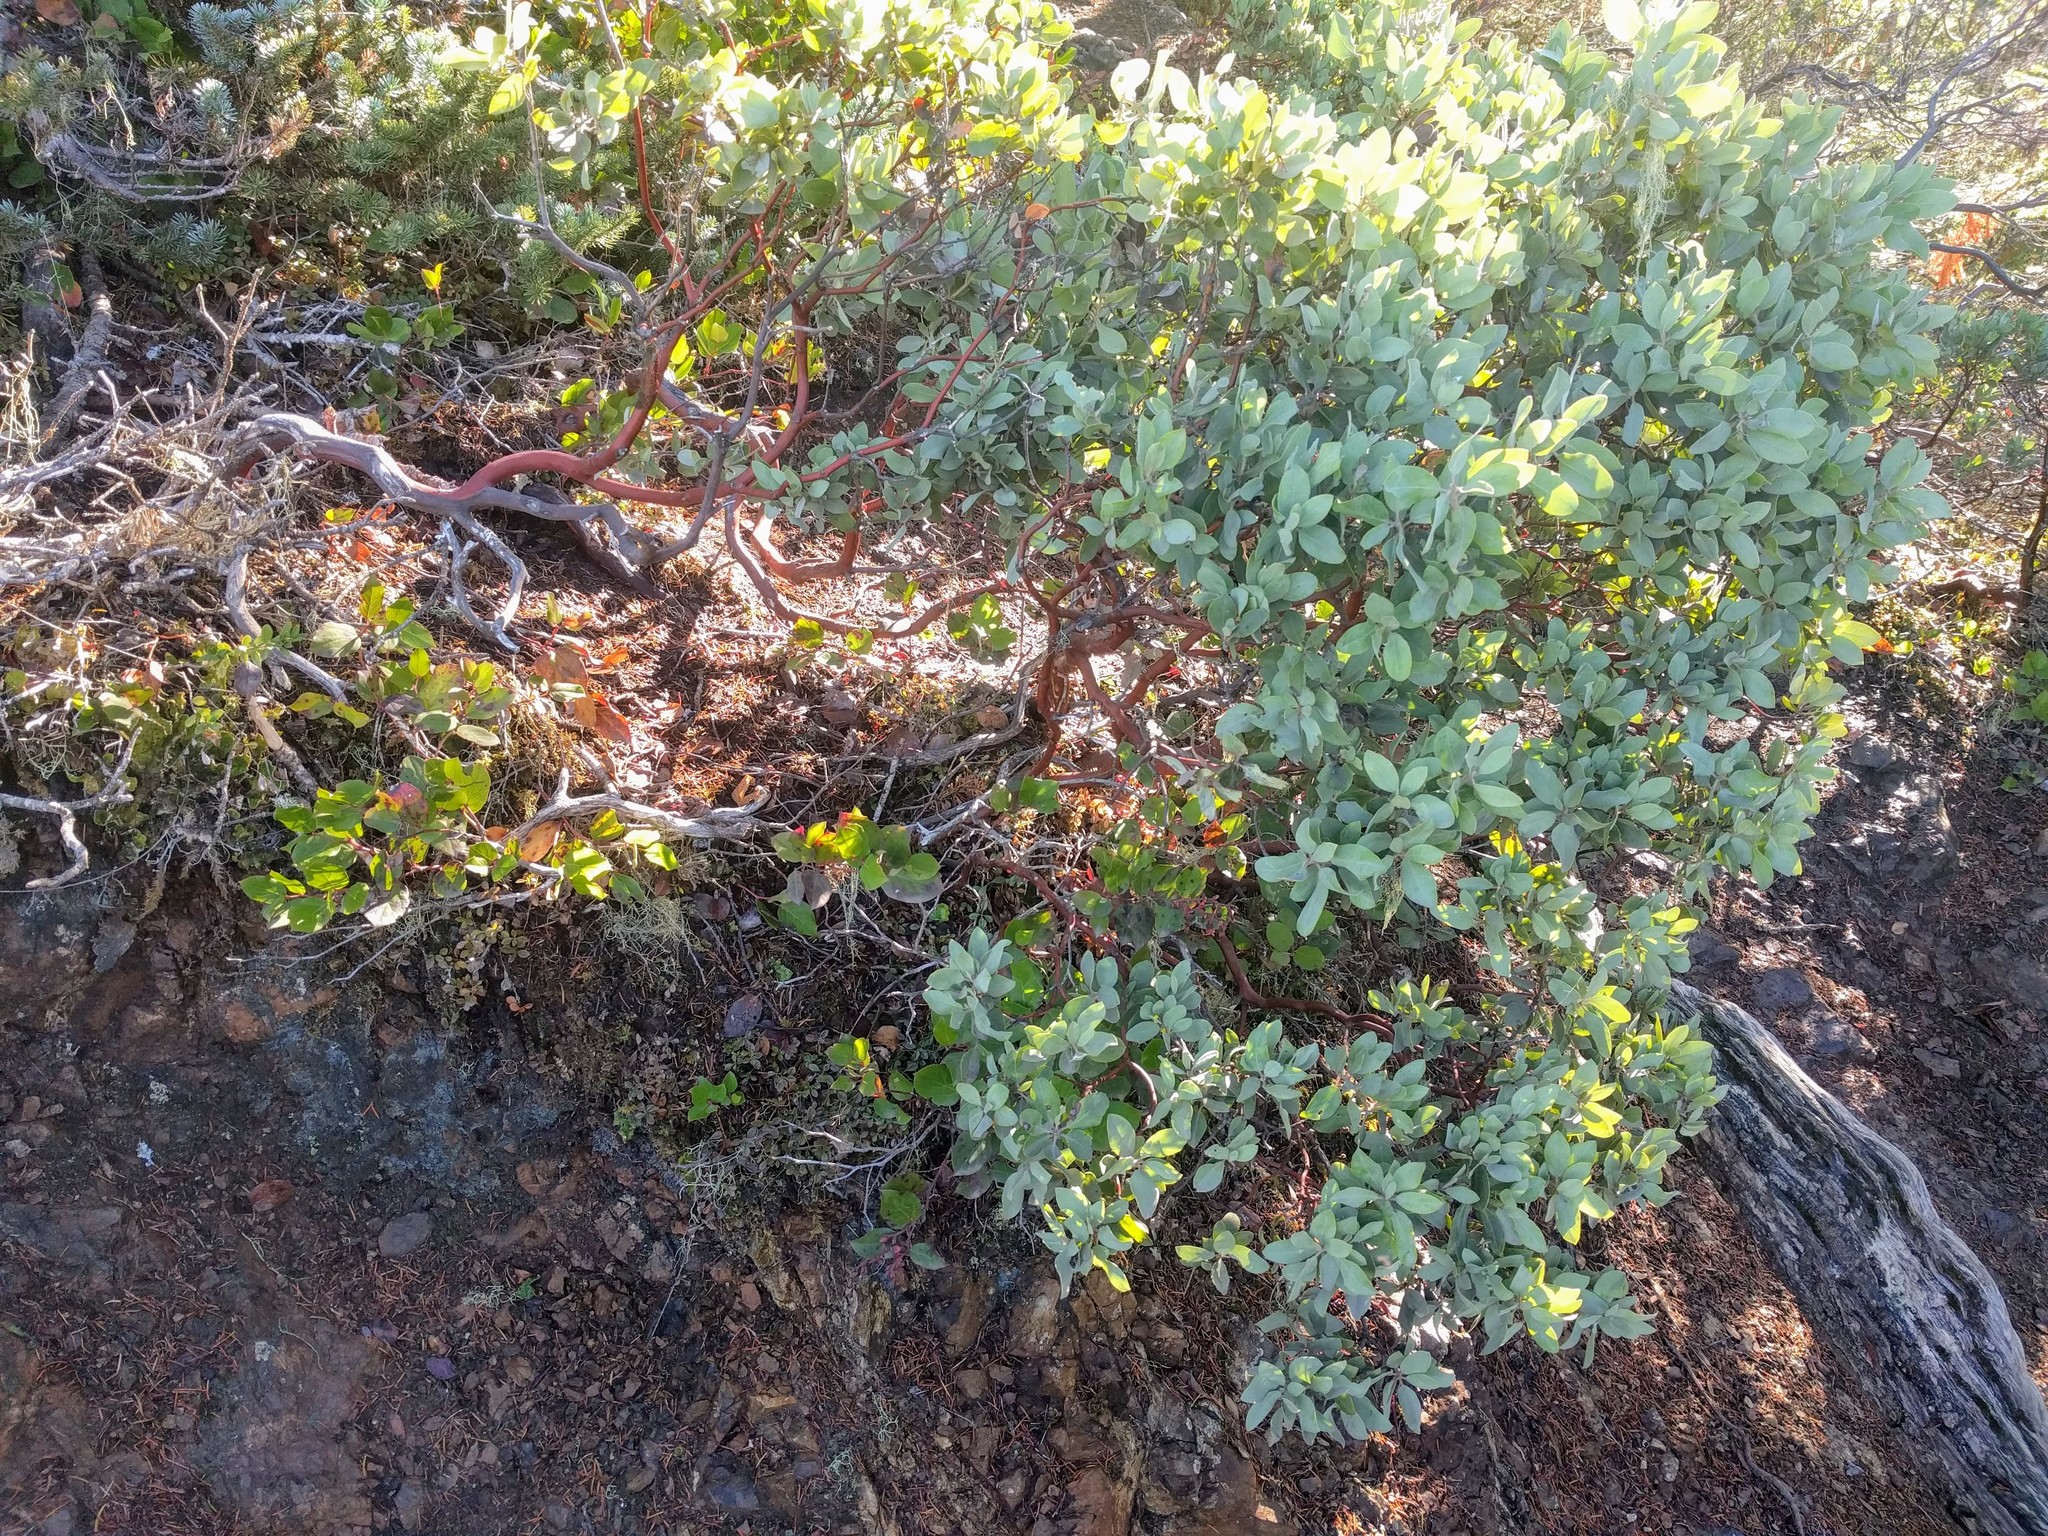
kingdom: Plantae
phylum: Tracheophyta
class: Magnoliopsida
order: Ericales
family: Ericaceae
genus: Arctostaphylos
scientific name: Arctostaphylos columbiana
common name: Bristly bearberry
